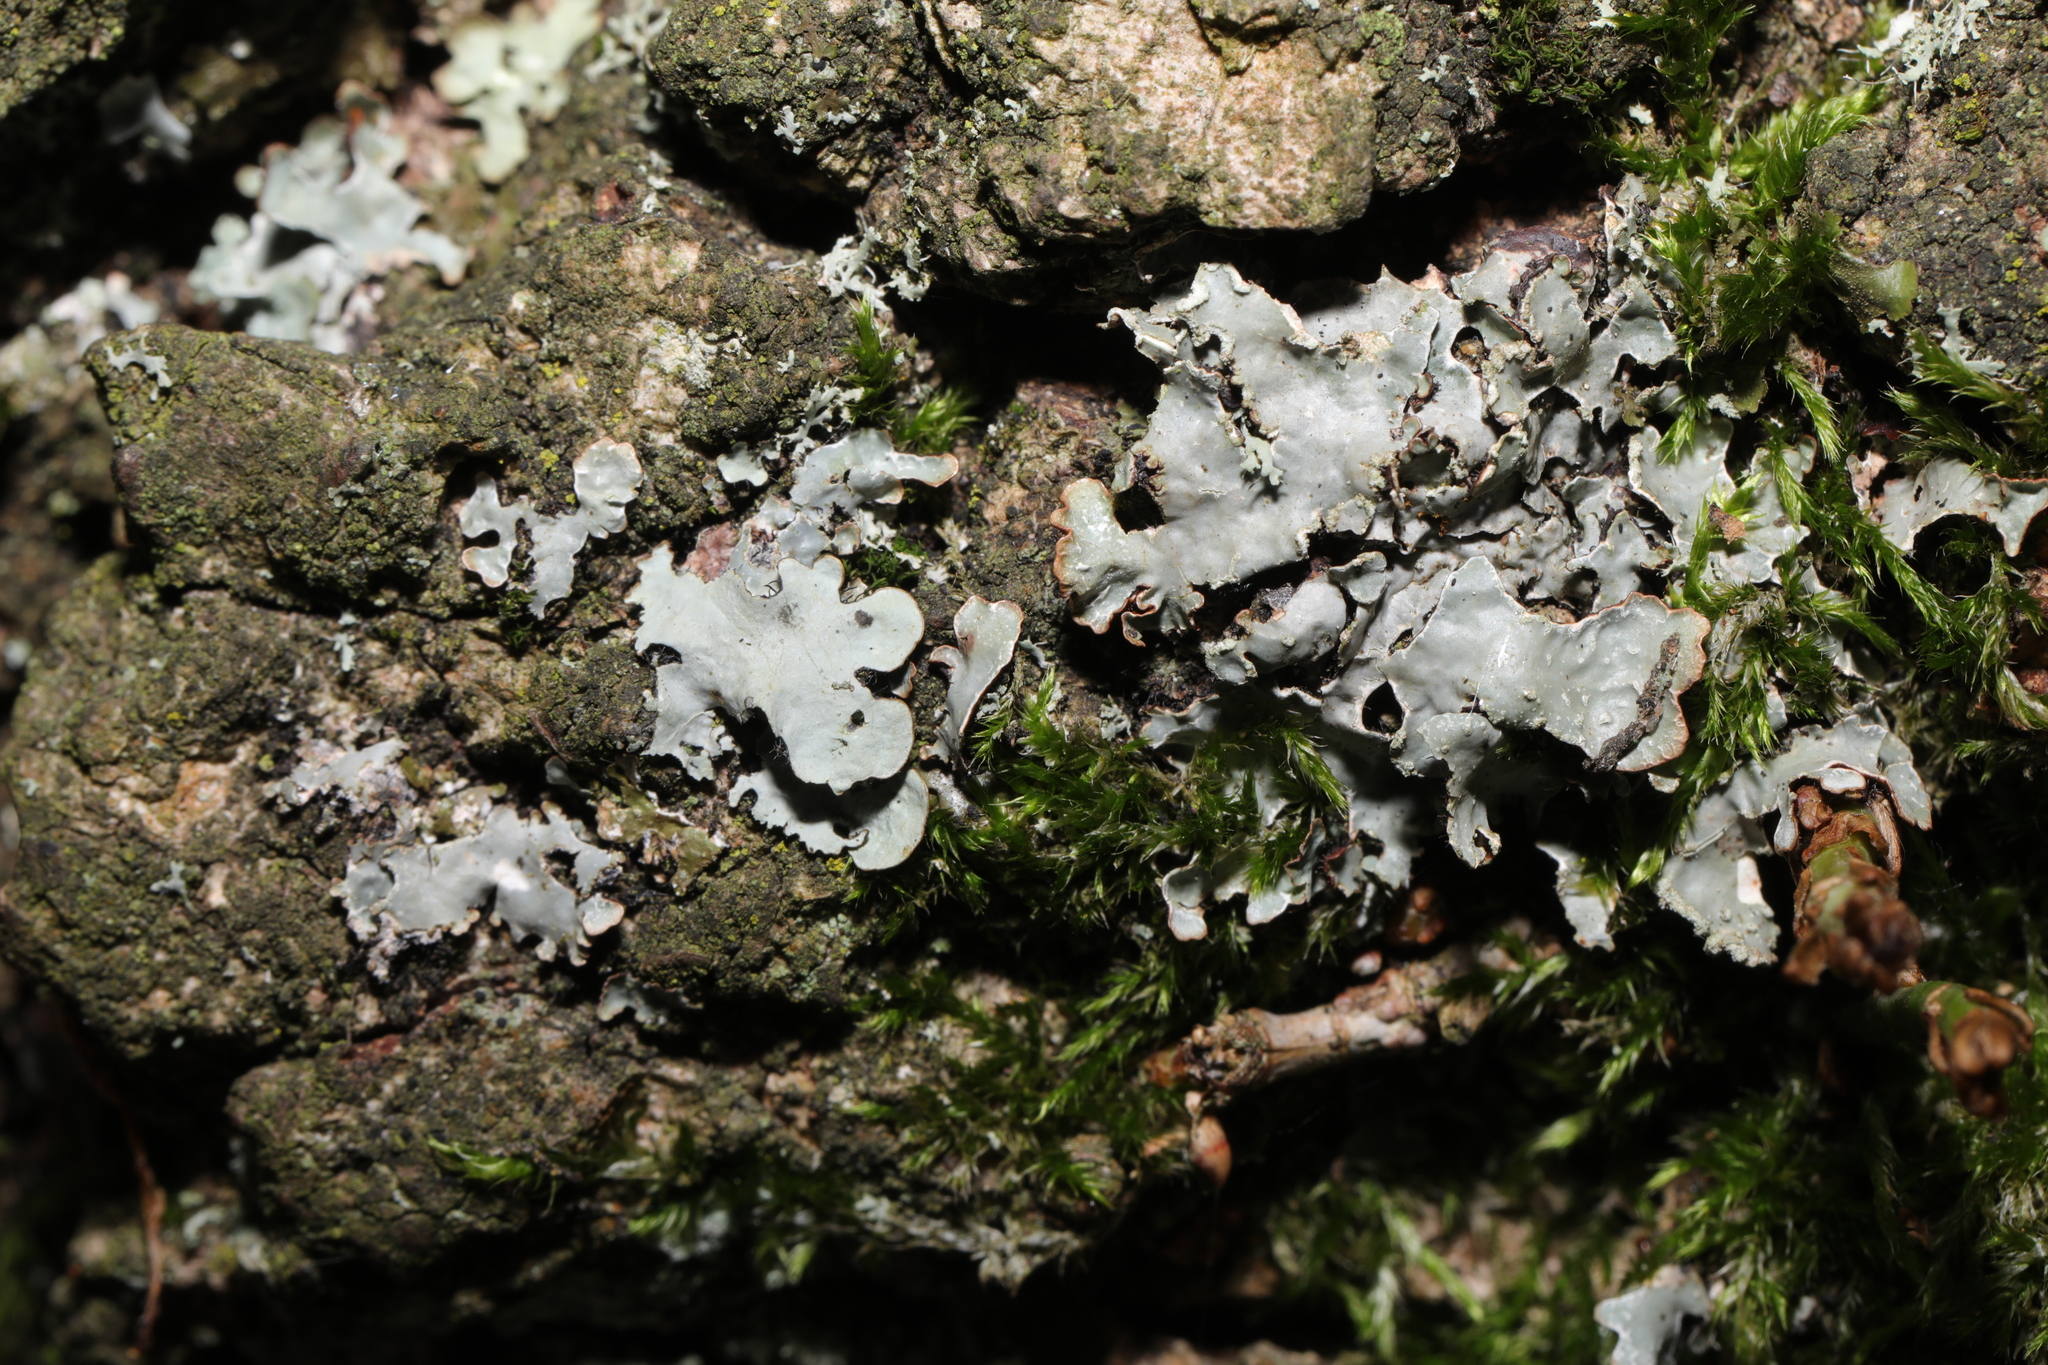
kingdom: Fungi
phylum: Ascomycota
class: Lecanoromycetes
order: Lecanorales
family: Parmeliaceae
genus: Parmelia
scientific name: Parmelia sulcata
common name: Netted shield lichen
